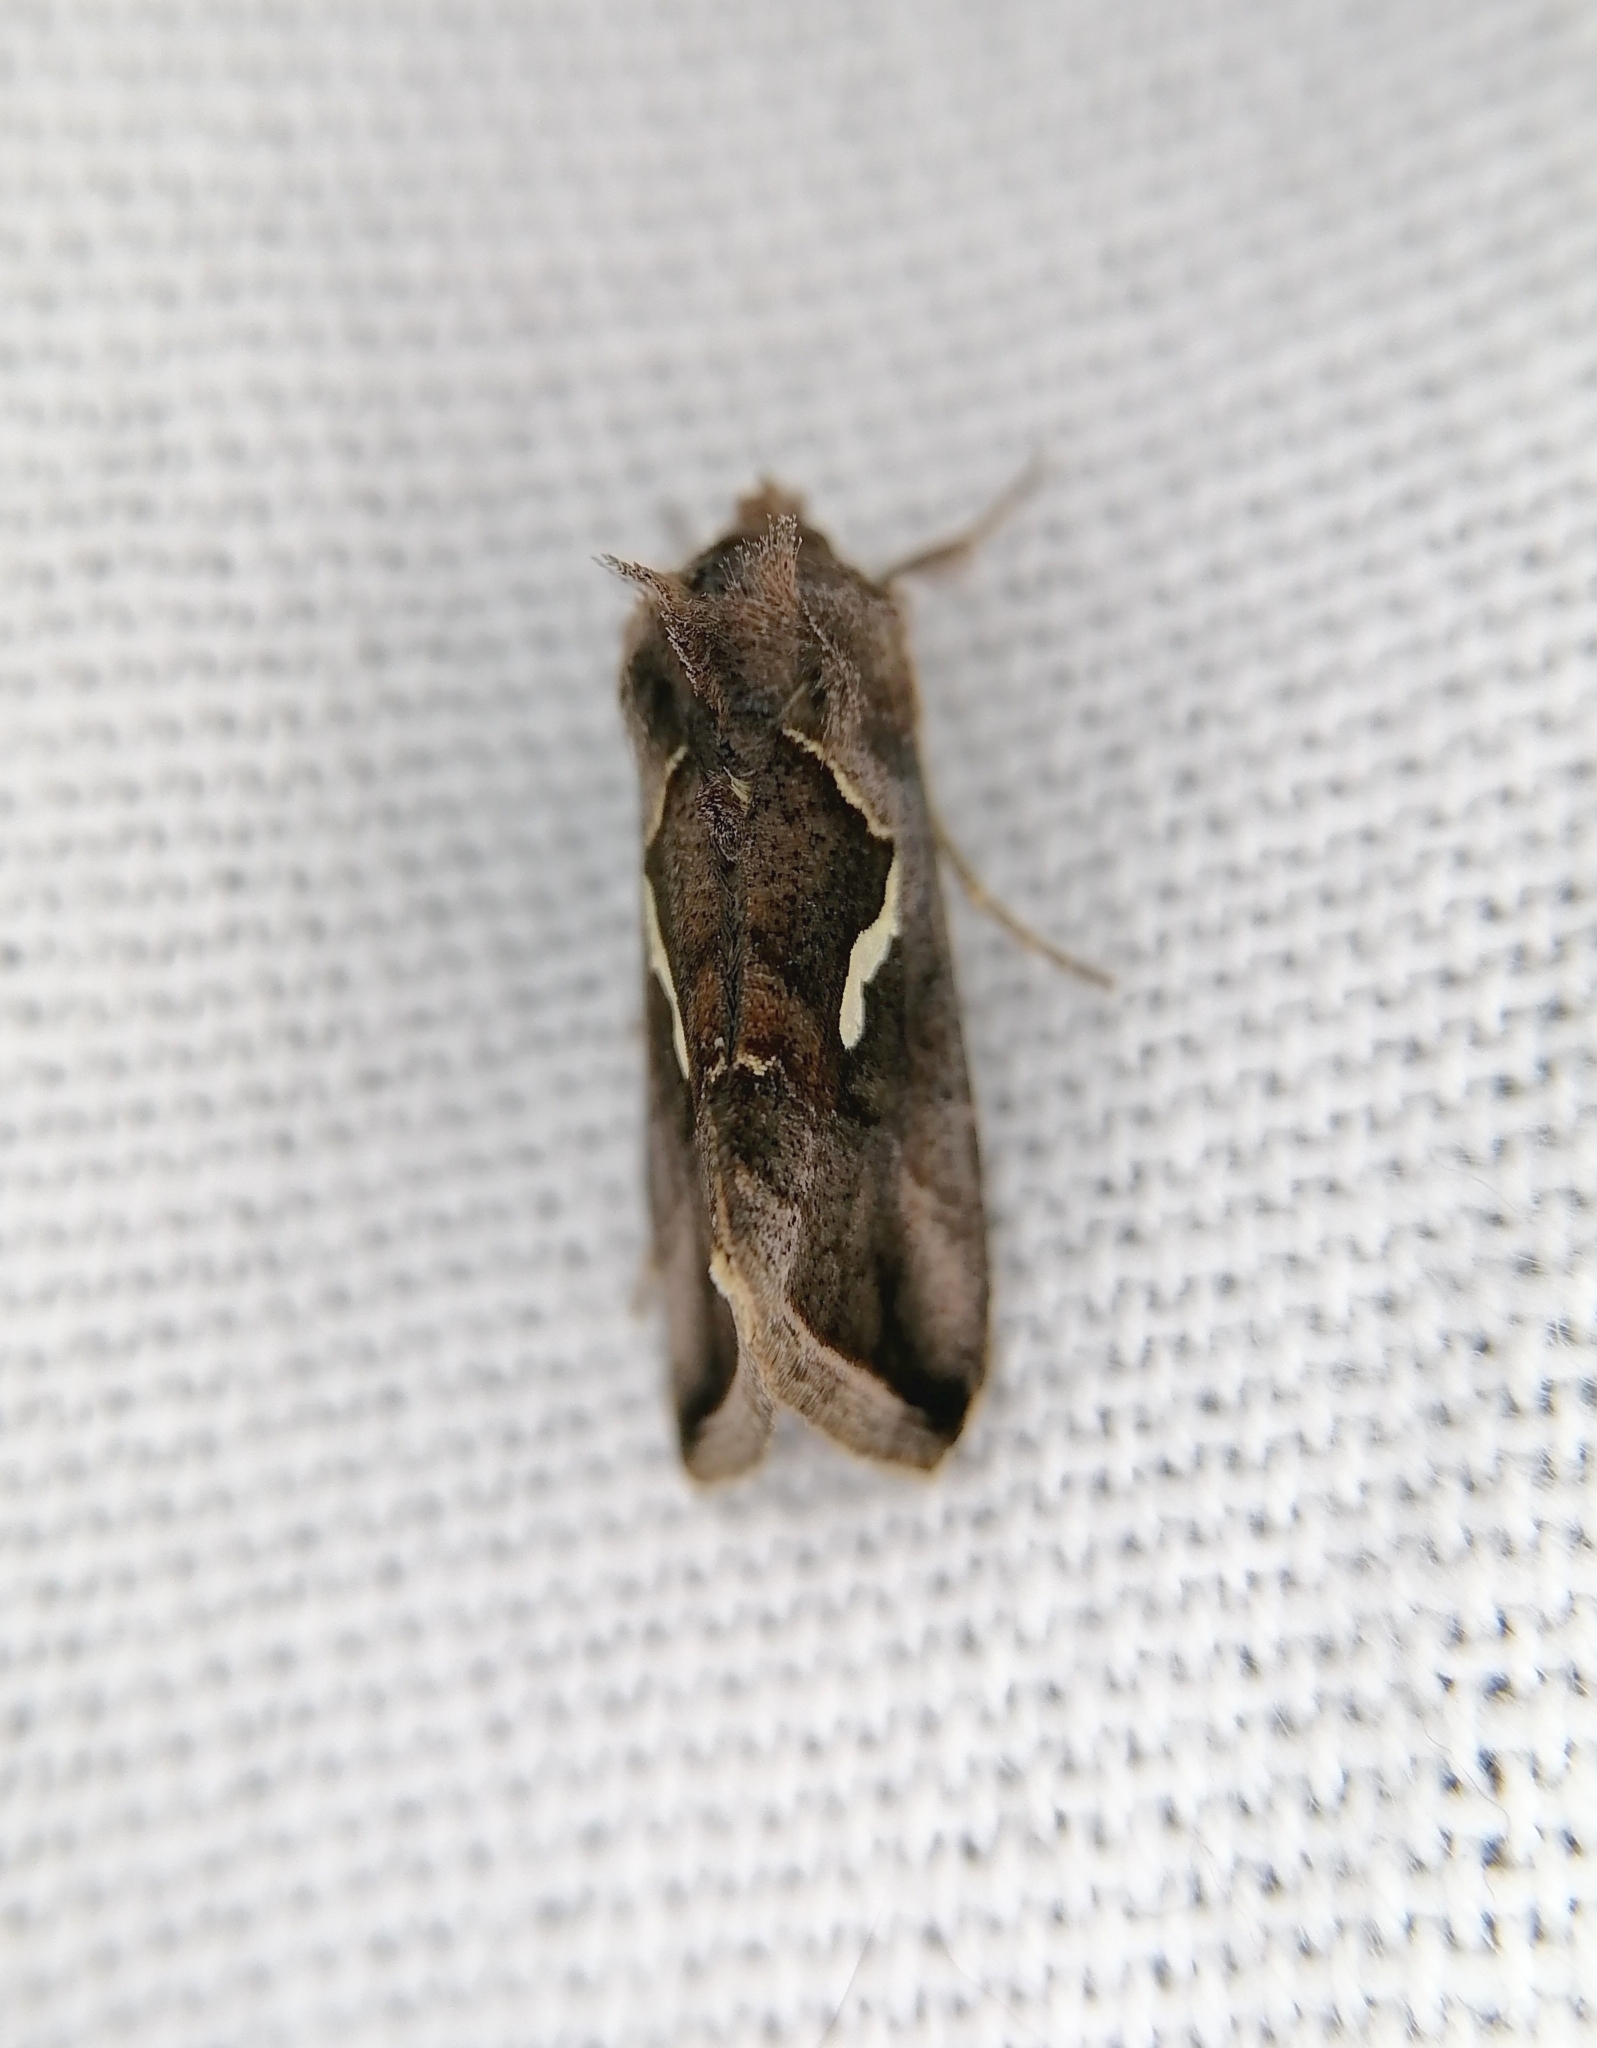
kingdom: Animalia
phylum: Arthropoda
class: Insecta
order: Lepidoptera
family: Noctuidae
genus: Macdunnoughia
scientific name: Macdunnoughia confusa
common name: Dewick's plusia
